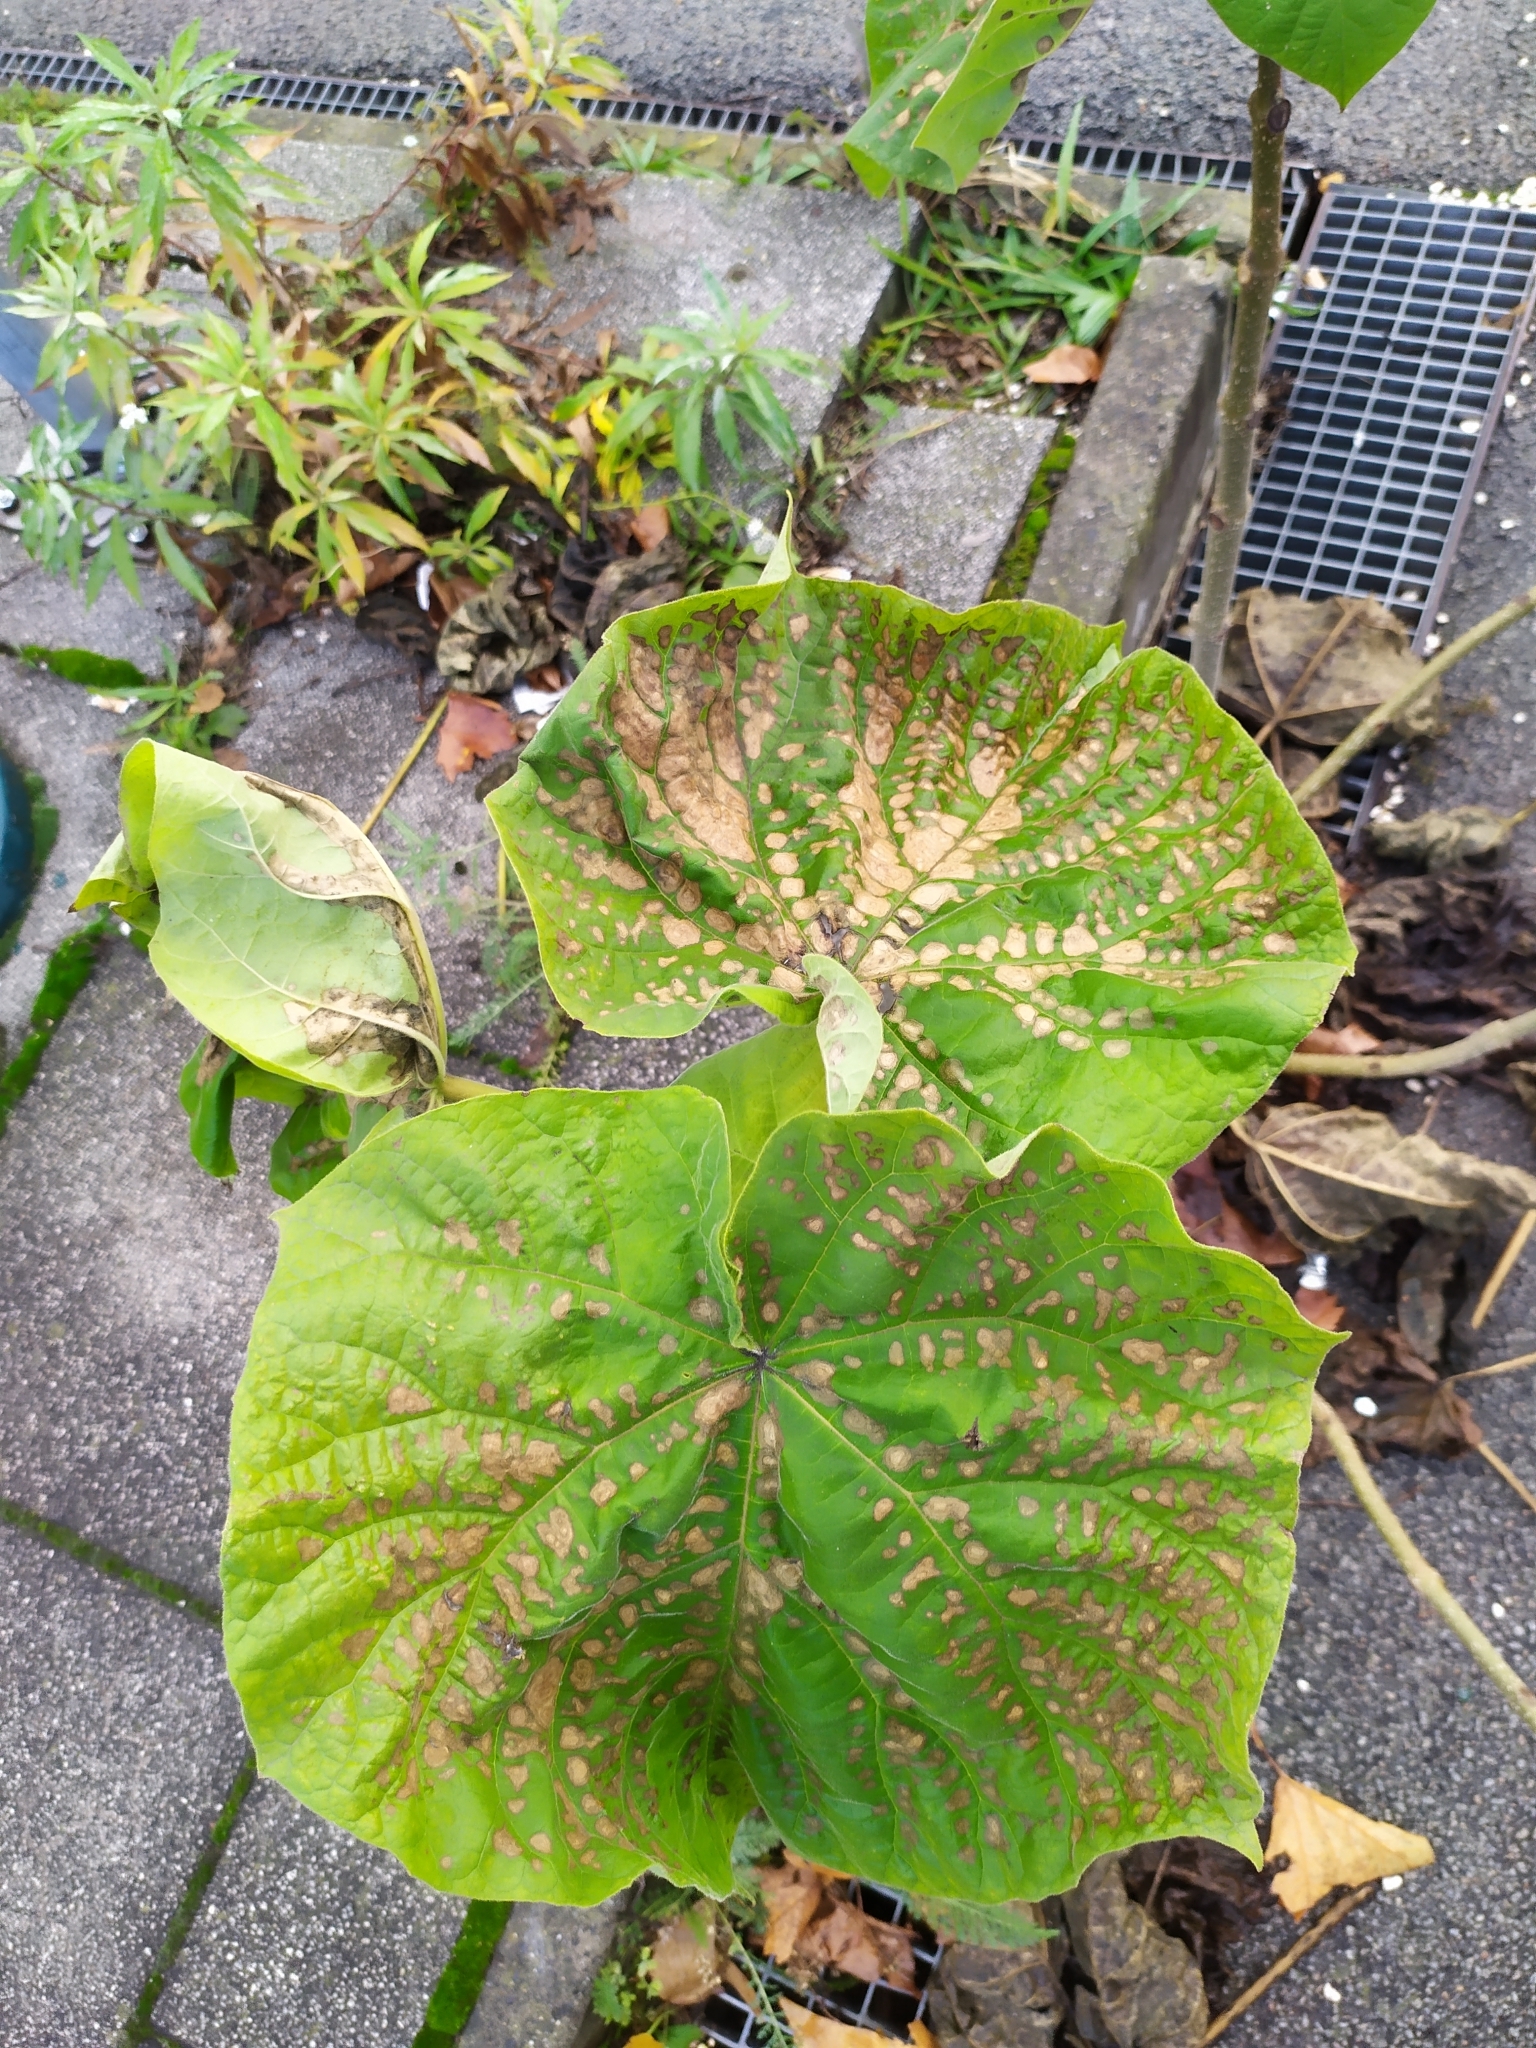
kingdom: Plantae
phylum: Tracheophyta
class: Magnoliopsida
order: Lamiales
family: Paulowniaceae
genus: Paulownia
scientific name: Paulownia tomentosa
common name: Foxglove-tree
